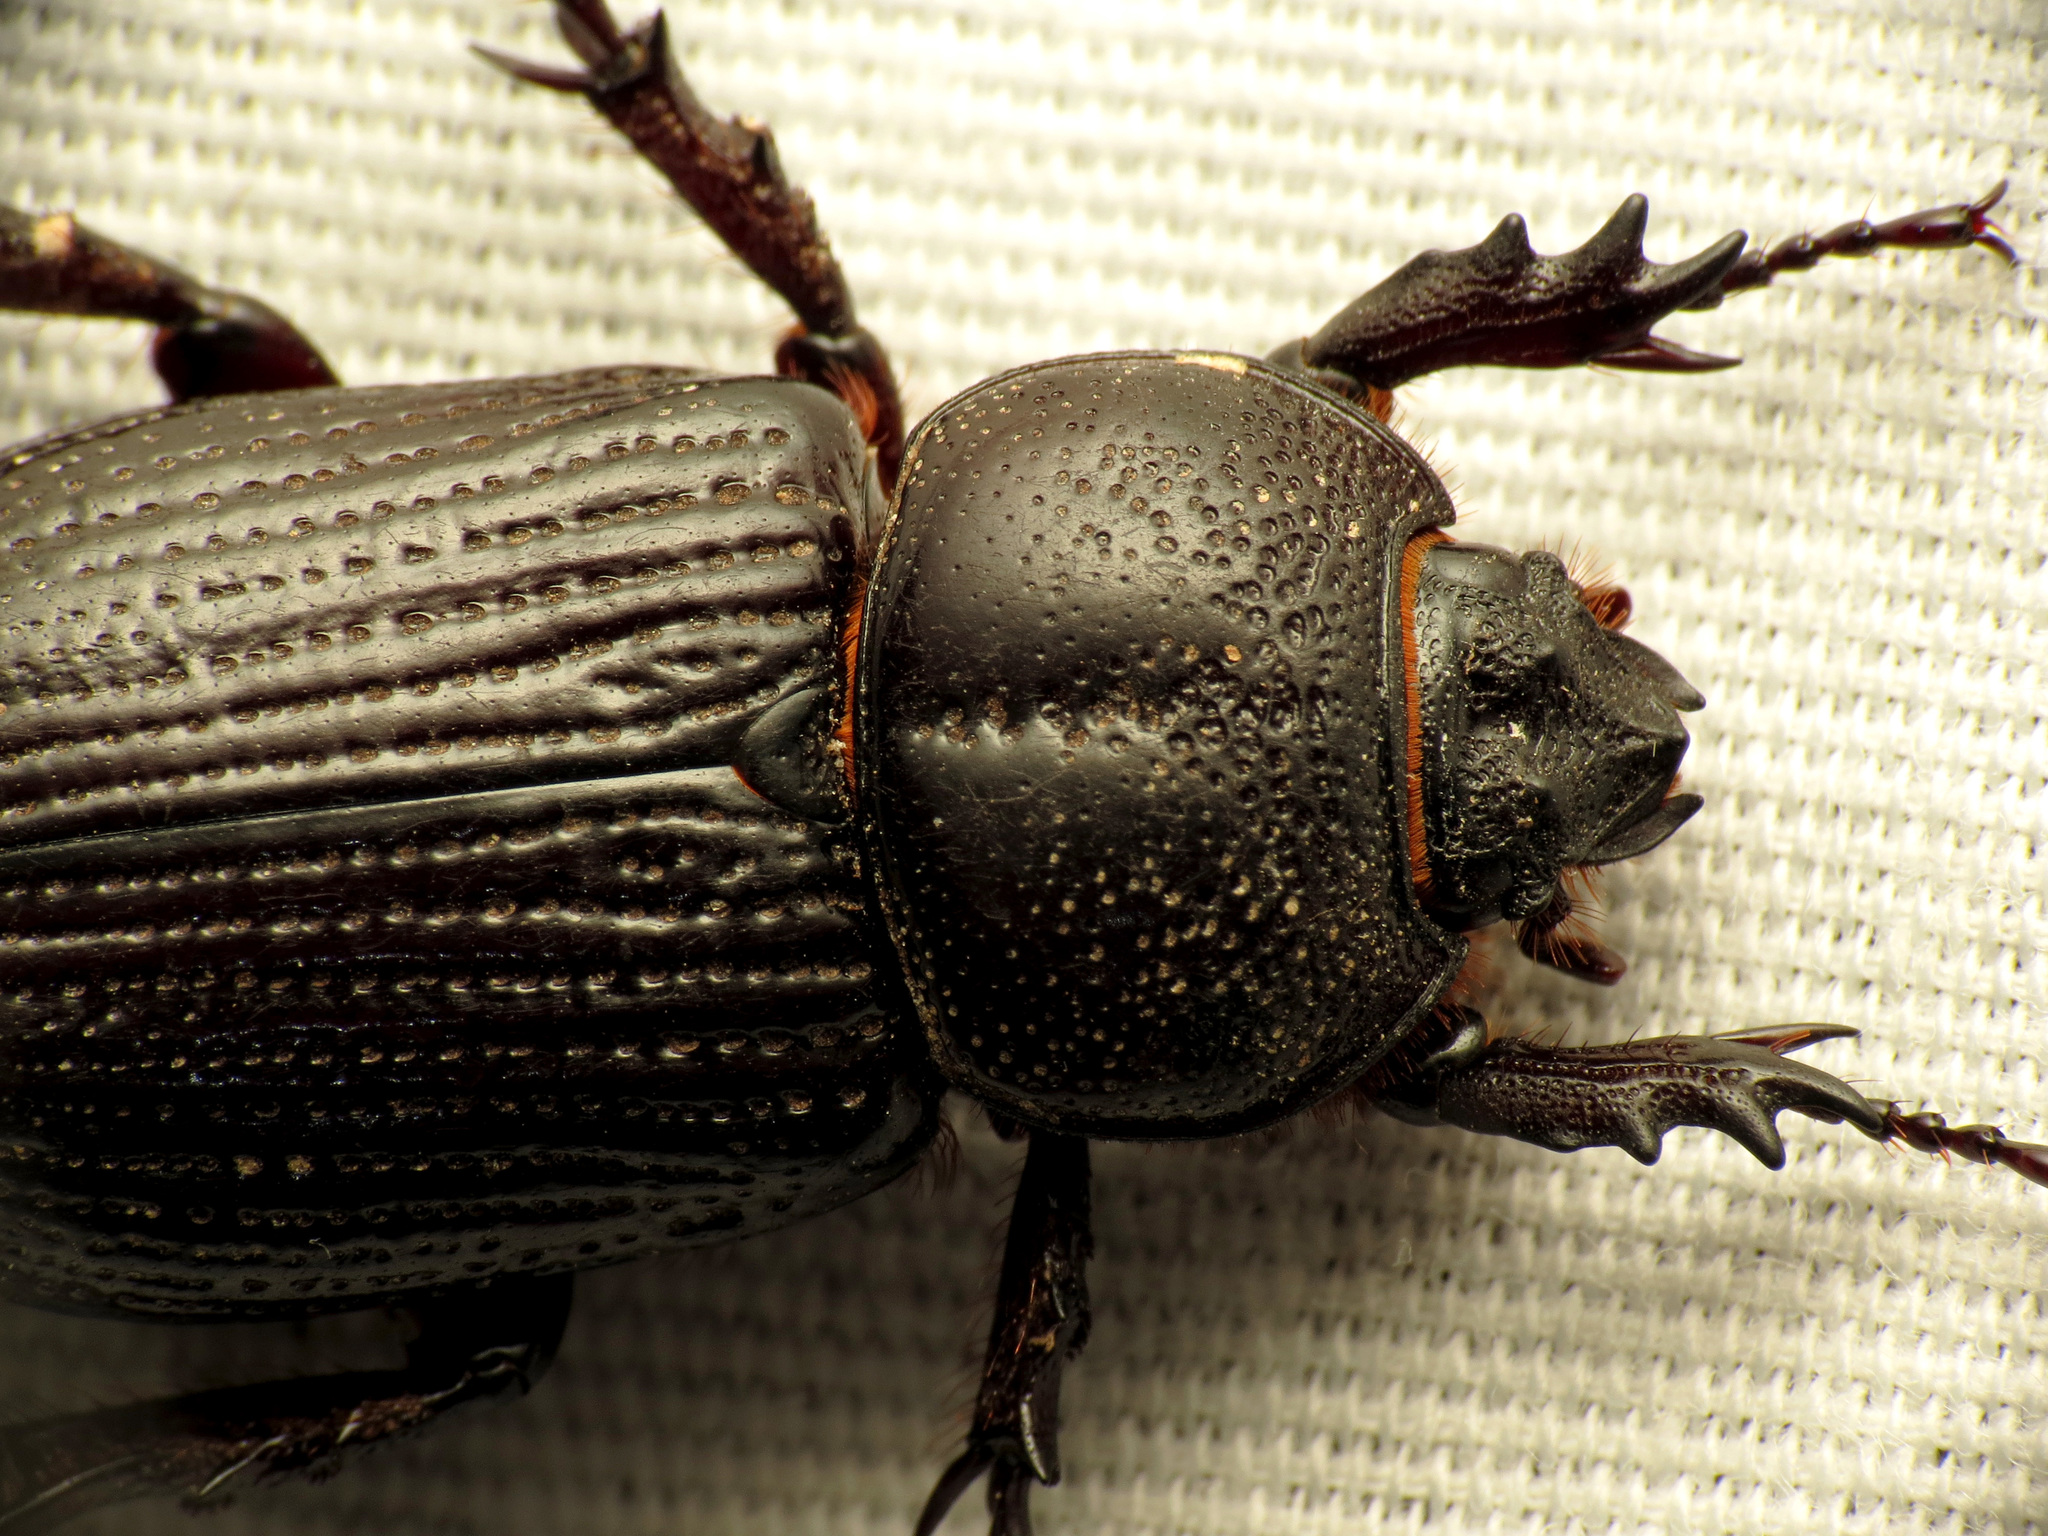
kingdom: Animalia
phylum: Arthropoda
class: Insecta
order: Coleoptera
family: Scarabaeidae
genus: Hemiphileurus
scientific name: Hemiphileurus illatus
